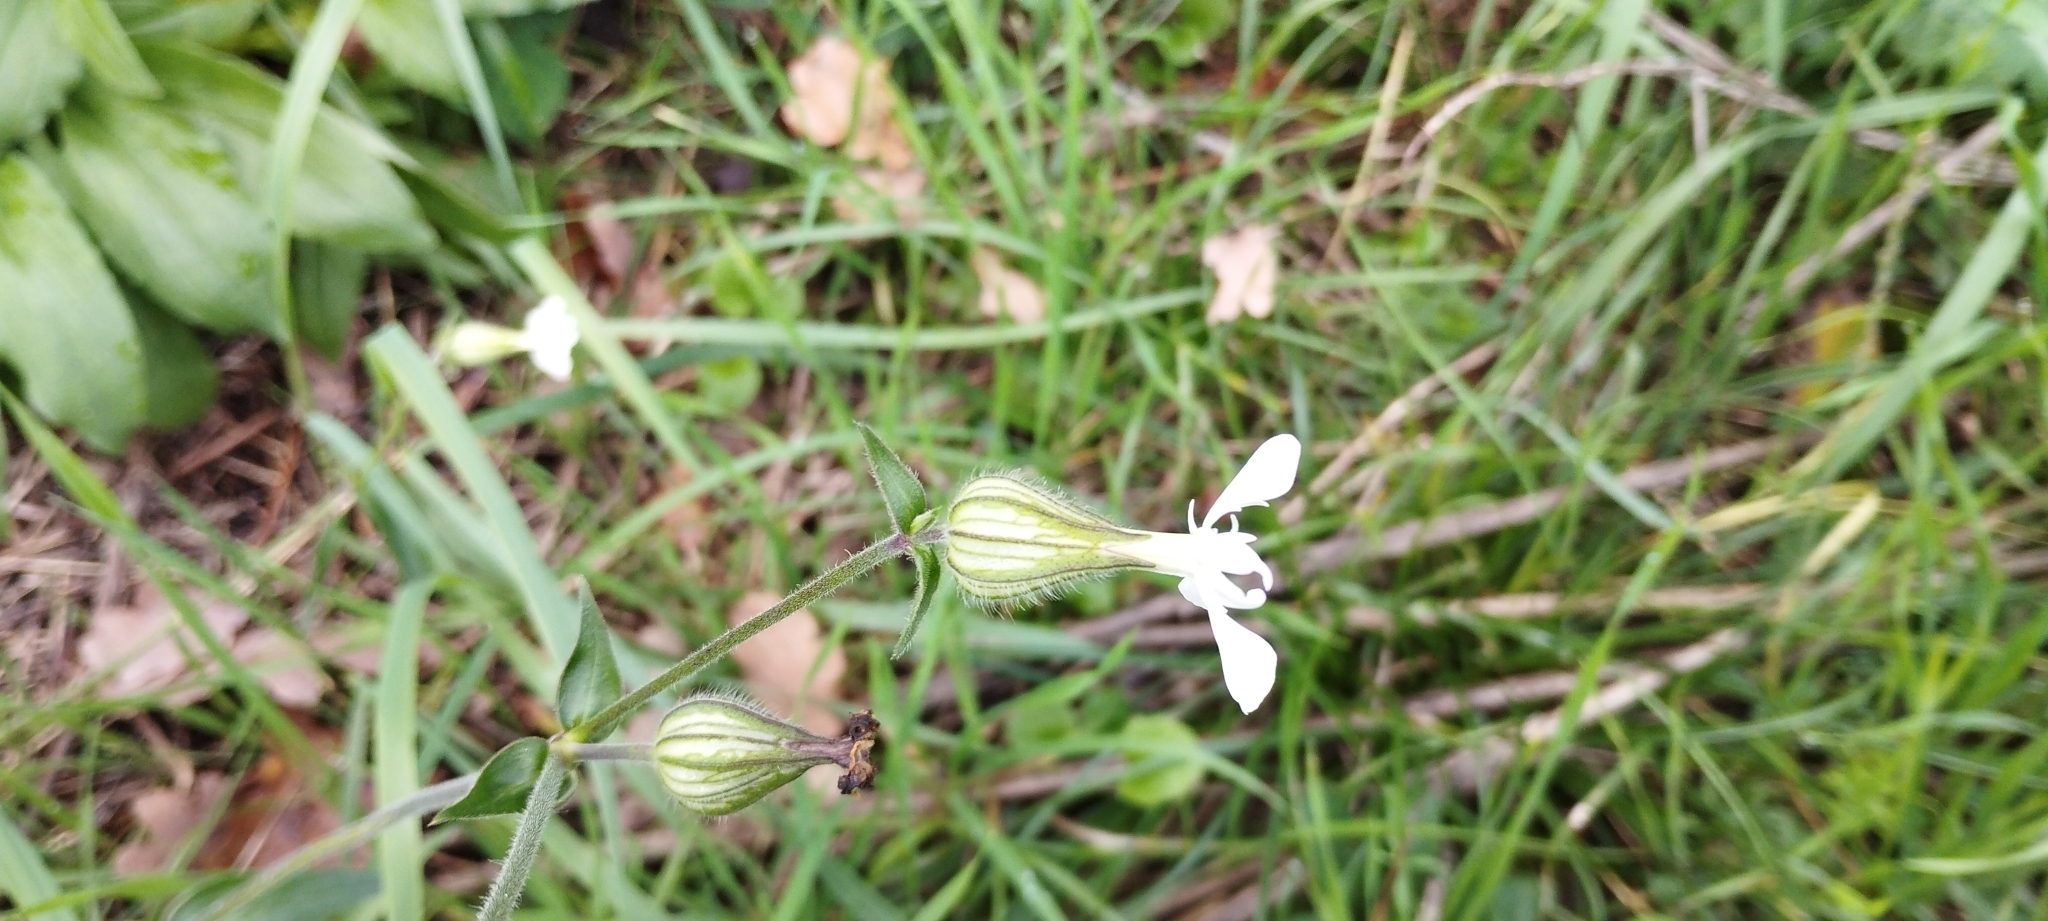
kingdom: Plantae
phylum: Tracheophyta
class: Magnoliopsida
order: Caryophyllales
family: Caryophyllaceae
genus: Silene
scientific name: Silene latifolia
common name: White campion
